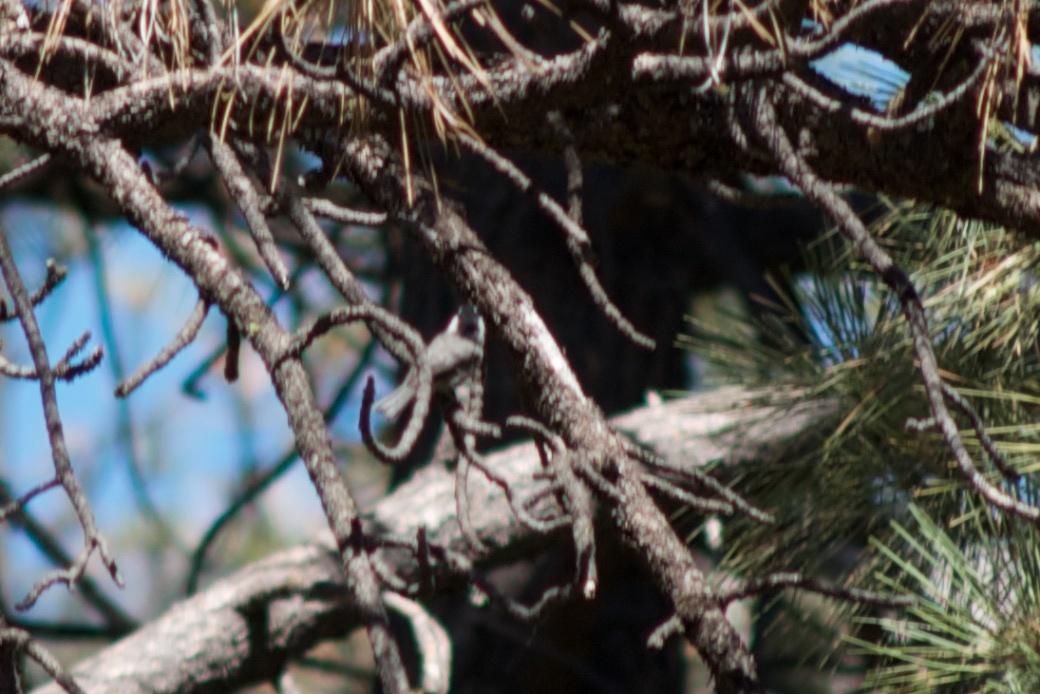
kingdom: Animalia
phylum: Chordata
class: Aves
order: Passeriformes
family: Paridae
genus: Poecile
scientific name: Poecile gambeli
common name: Mountain chickadee
